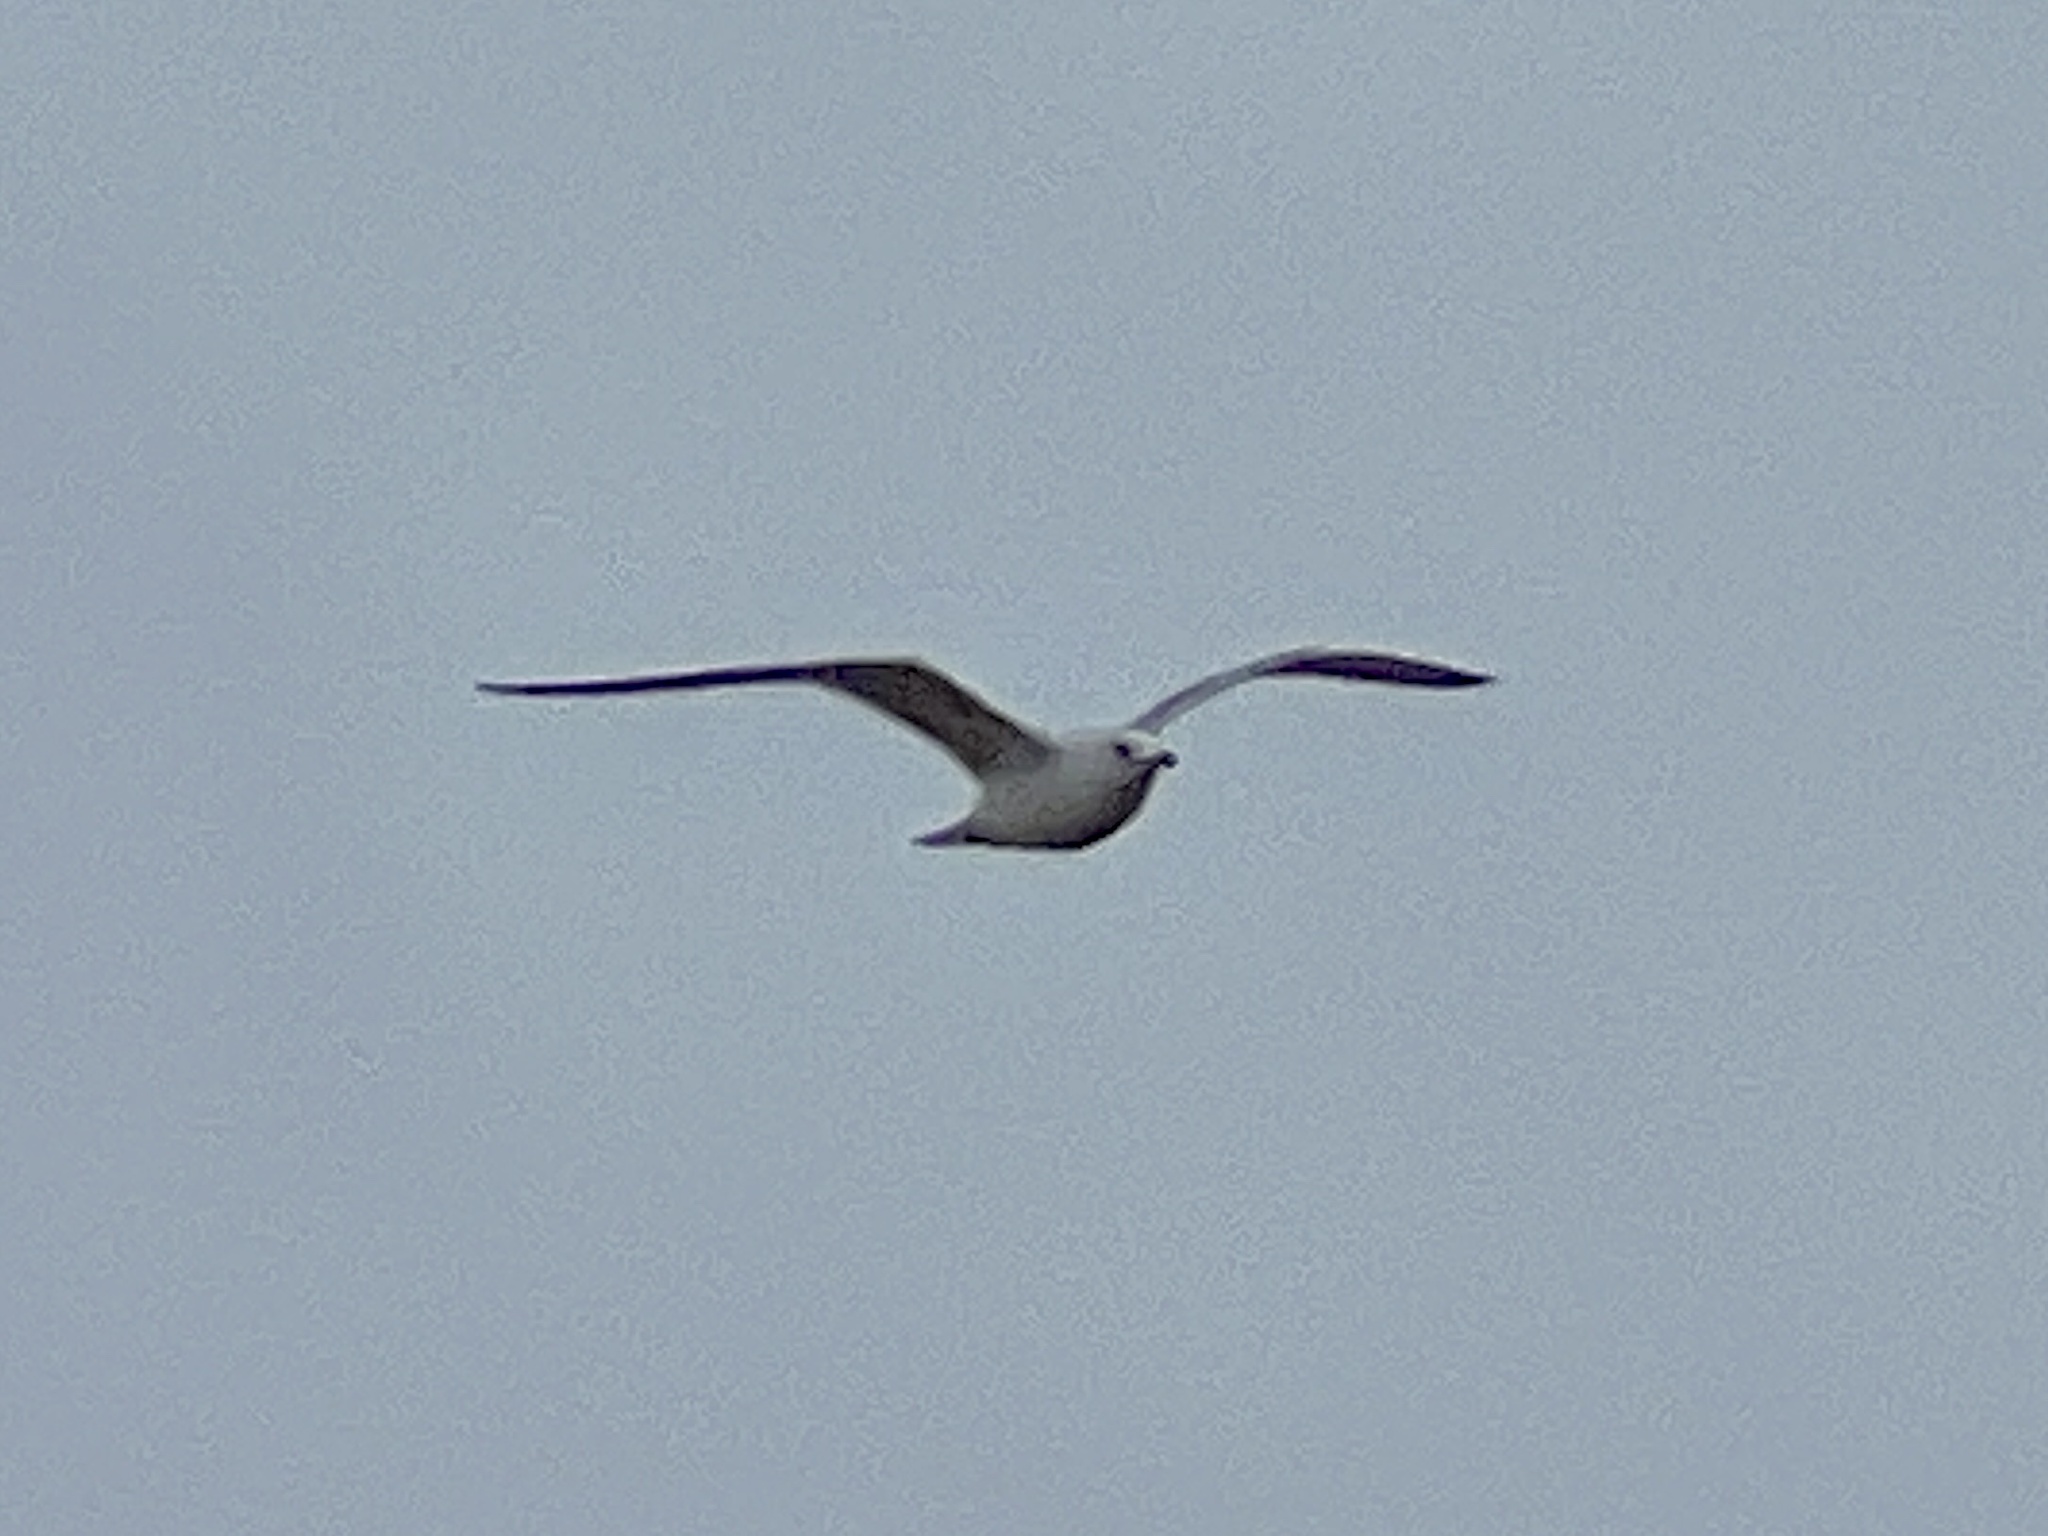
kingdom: Animalia
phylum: Chordata
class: Aves
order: Charadriiformes
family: Laridae
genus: Leucophaeus
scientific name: Leucophaeus atricilla
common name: Laughing gull
